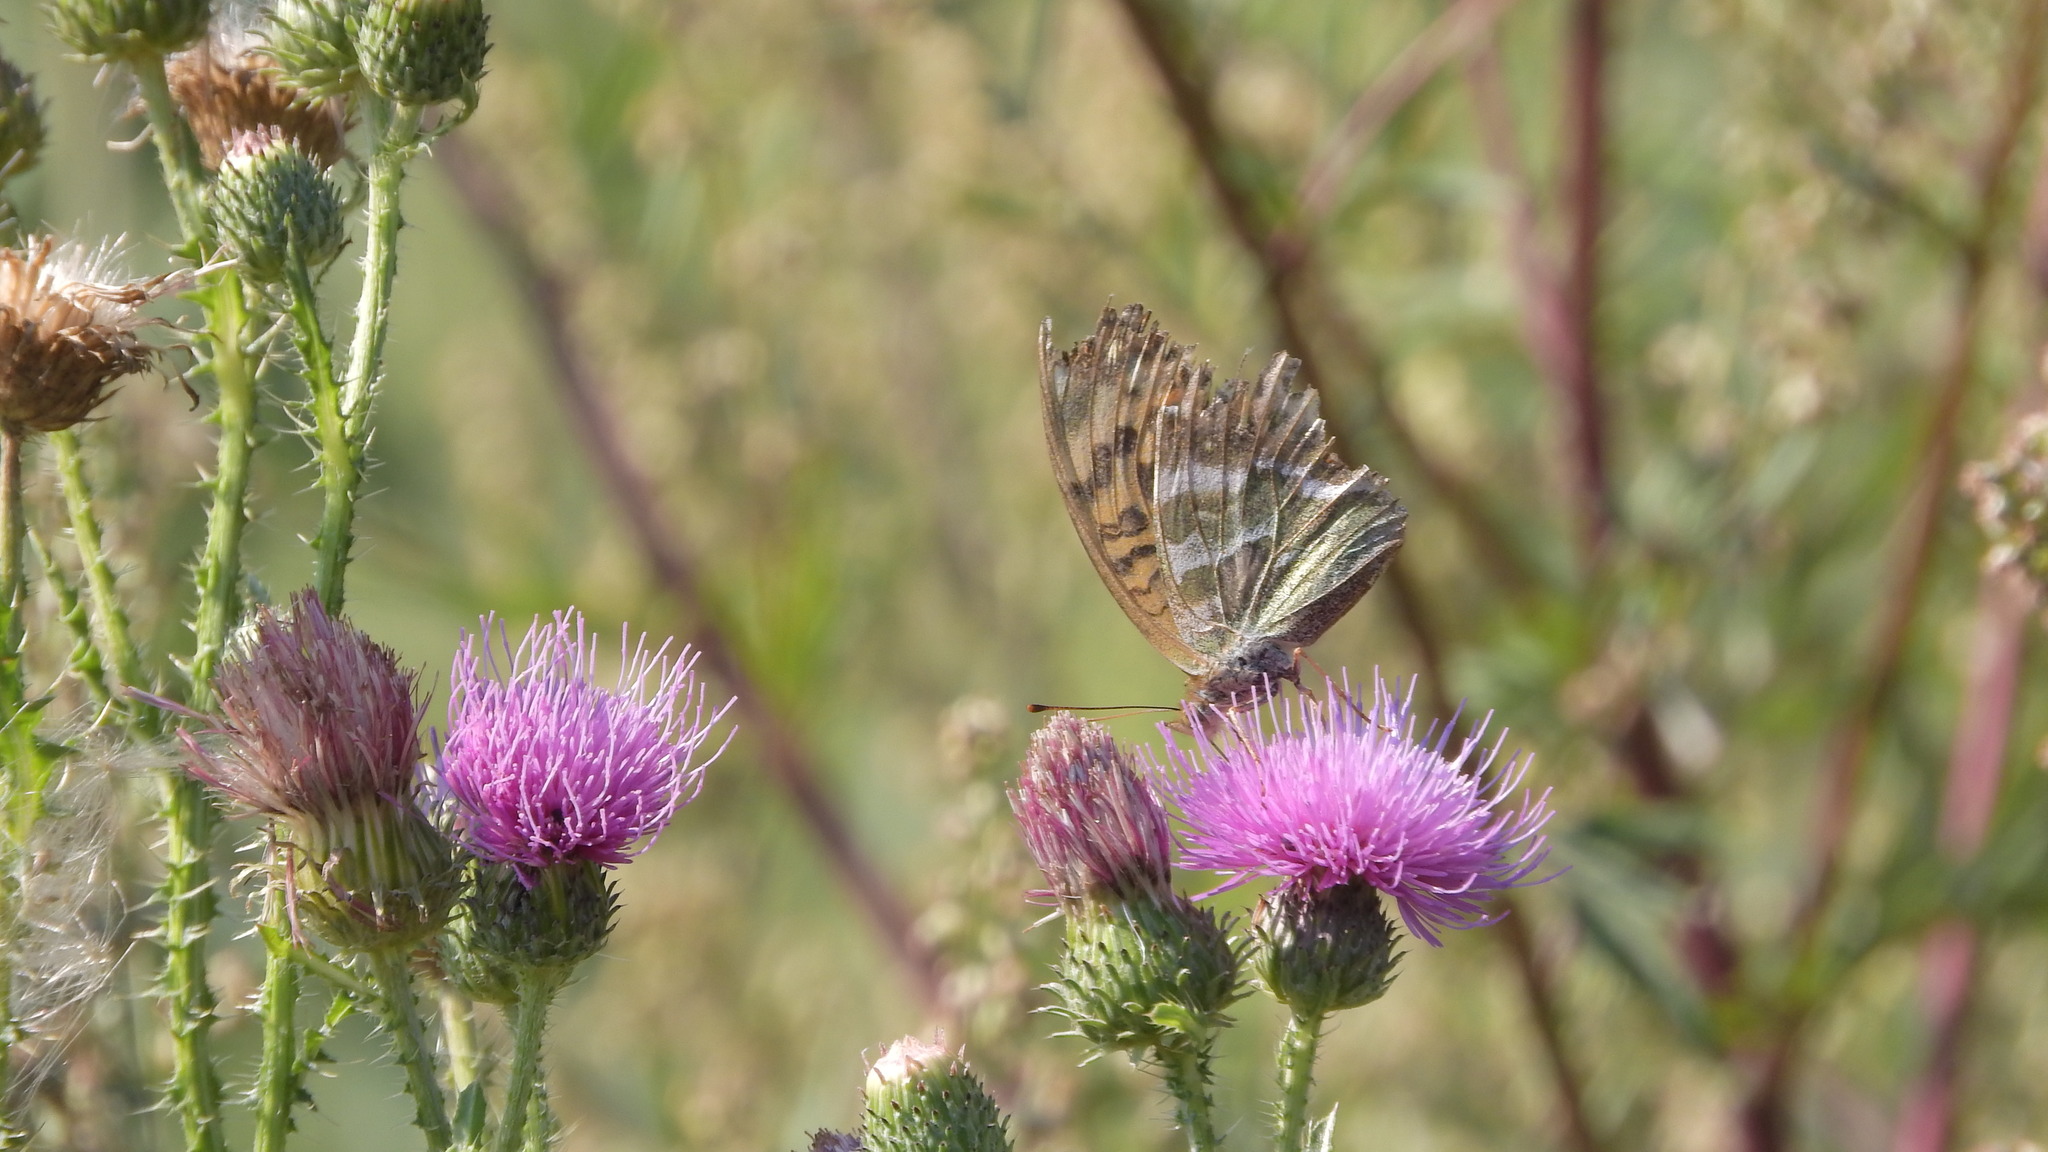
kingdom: Animalia
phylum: Arthropoda
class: Insecta
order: Lepidoptera
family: Nymphalidae
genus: Argynnis
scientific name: Argynnis paphia
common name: Silver-washed fritillary
